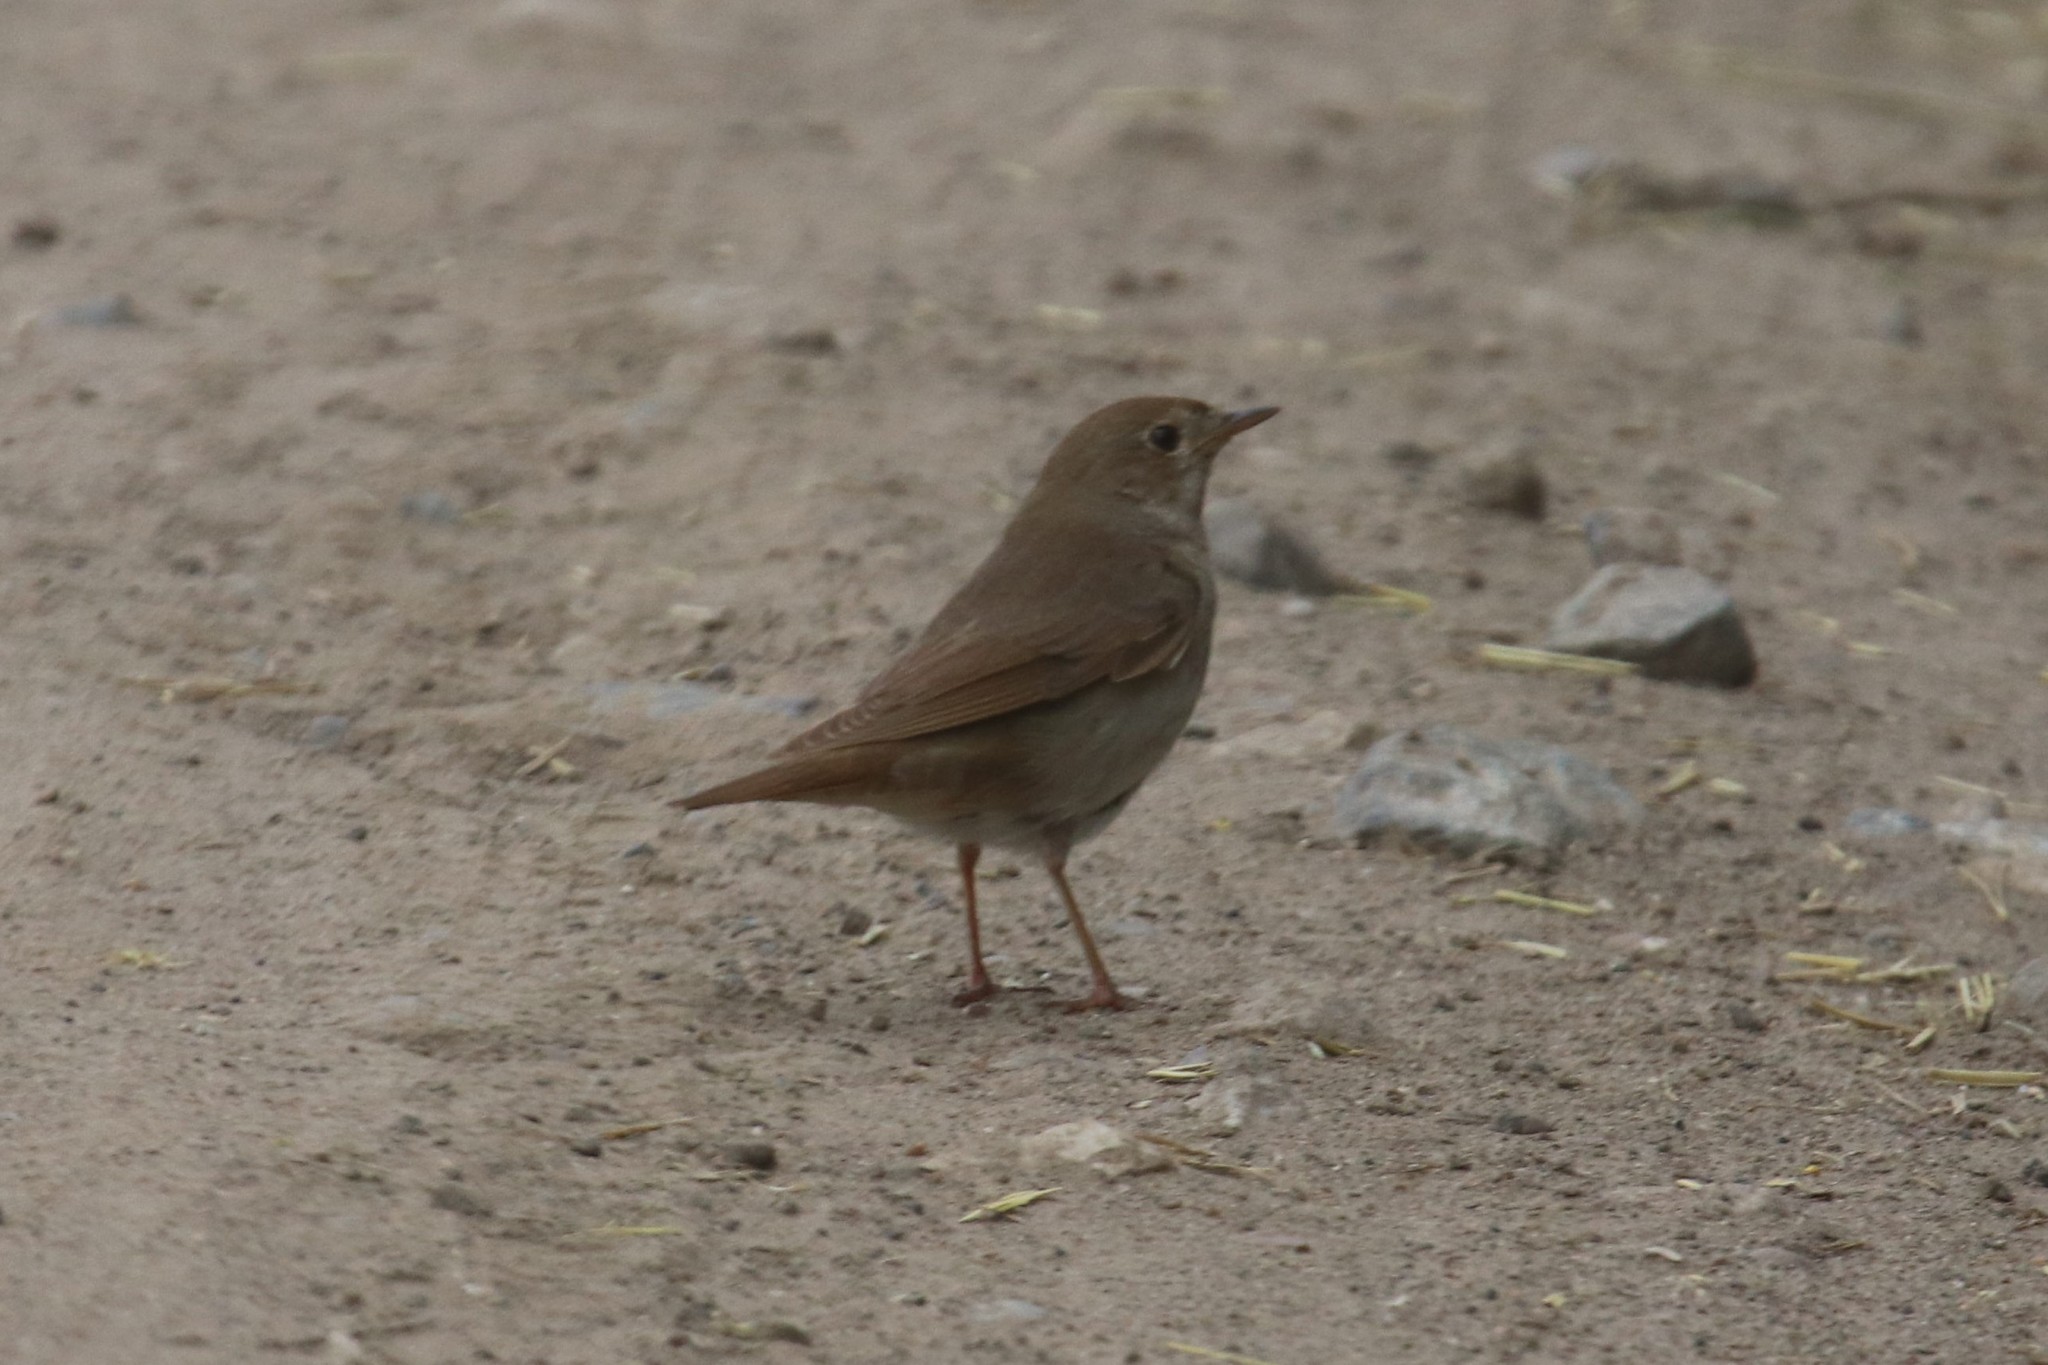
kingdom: Animalia
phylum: Chordata
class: Aves
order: Passeriformes
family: Muscicapidae
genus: Luscinia
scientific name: Luscinia luscinia
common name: Thrush nightingale
